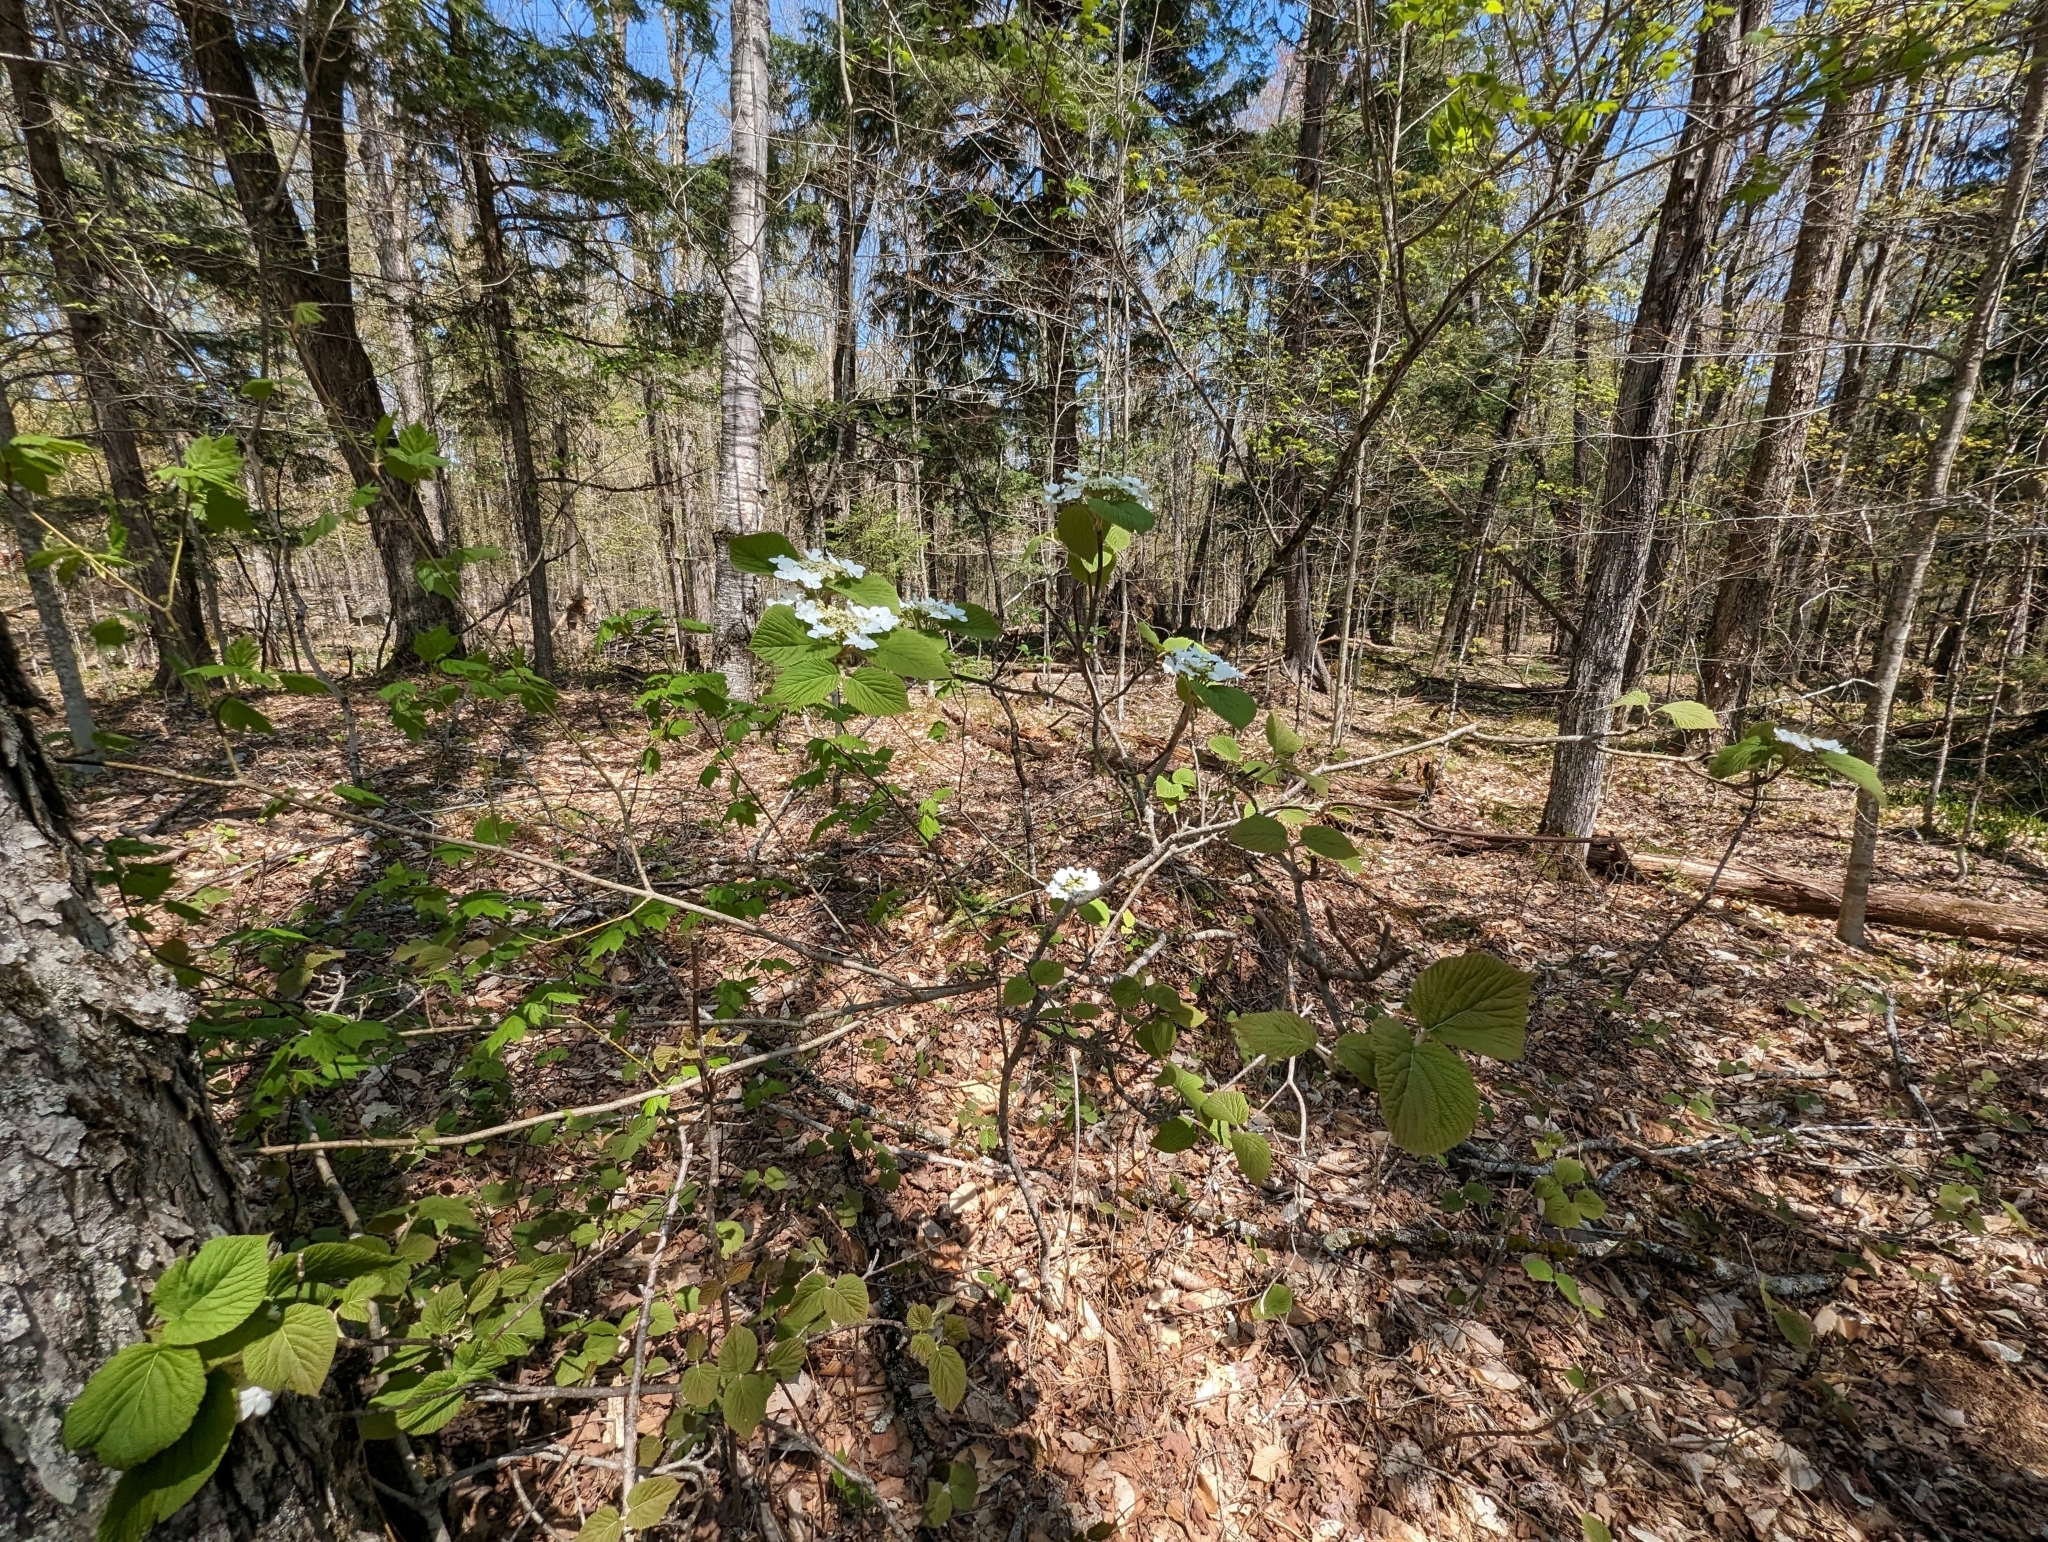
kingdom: Plantae
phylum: Tracheophyta
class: Magnoliopsida
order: Dipsacales
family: Viburnaceae
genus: Viburnum
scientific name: Viburnum lantanoides
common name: Hobblebush
